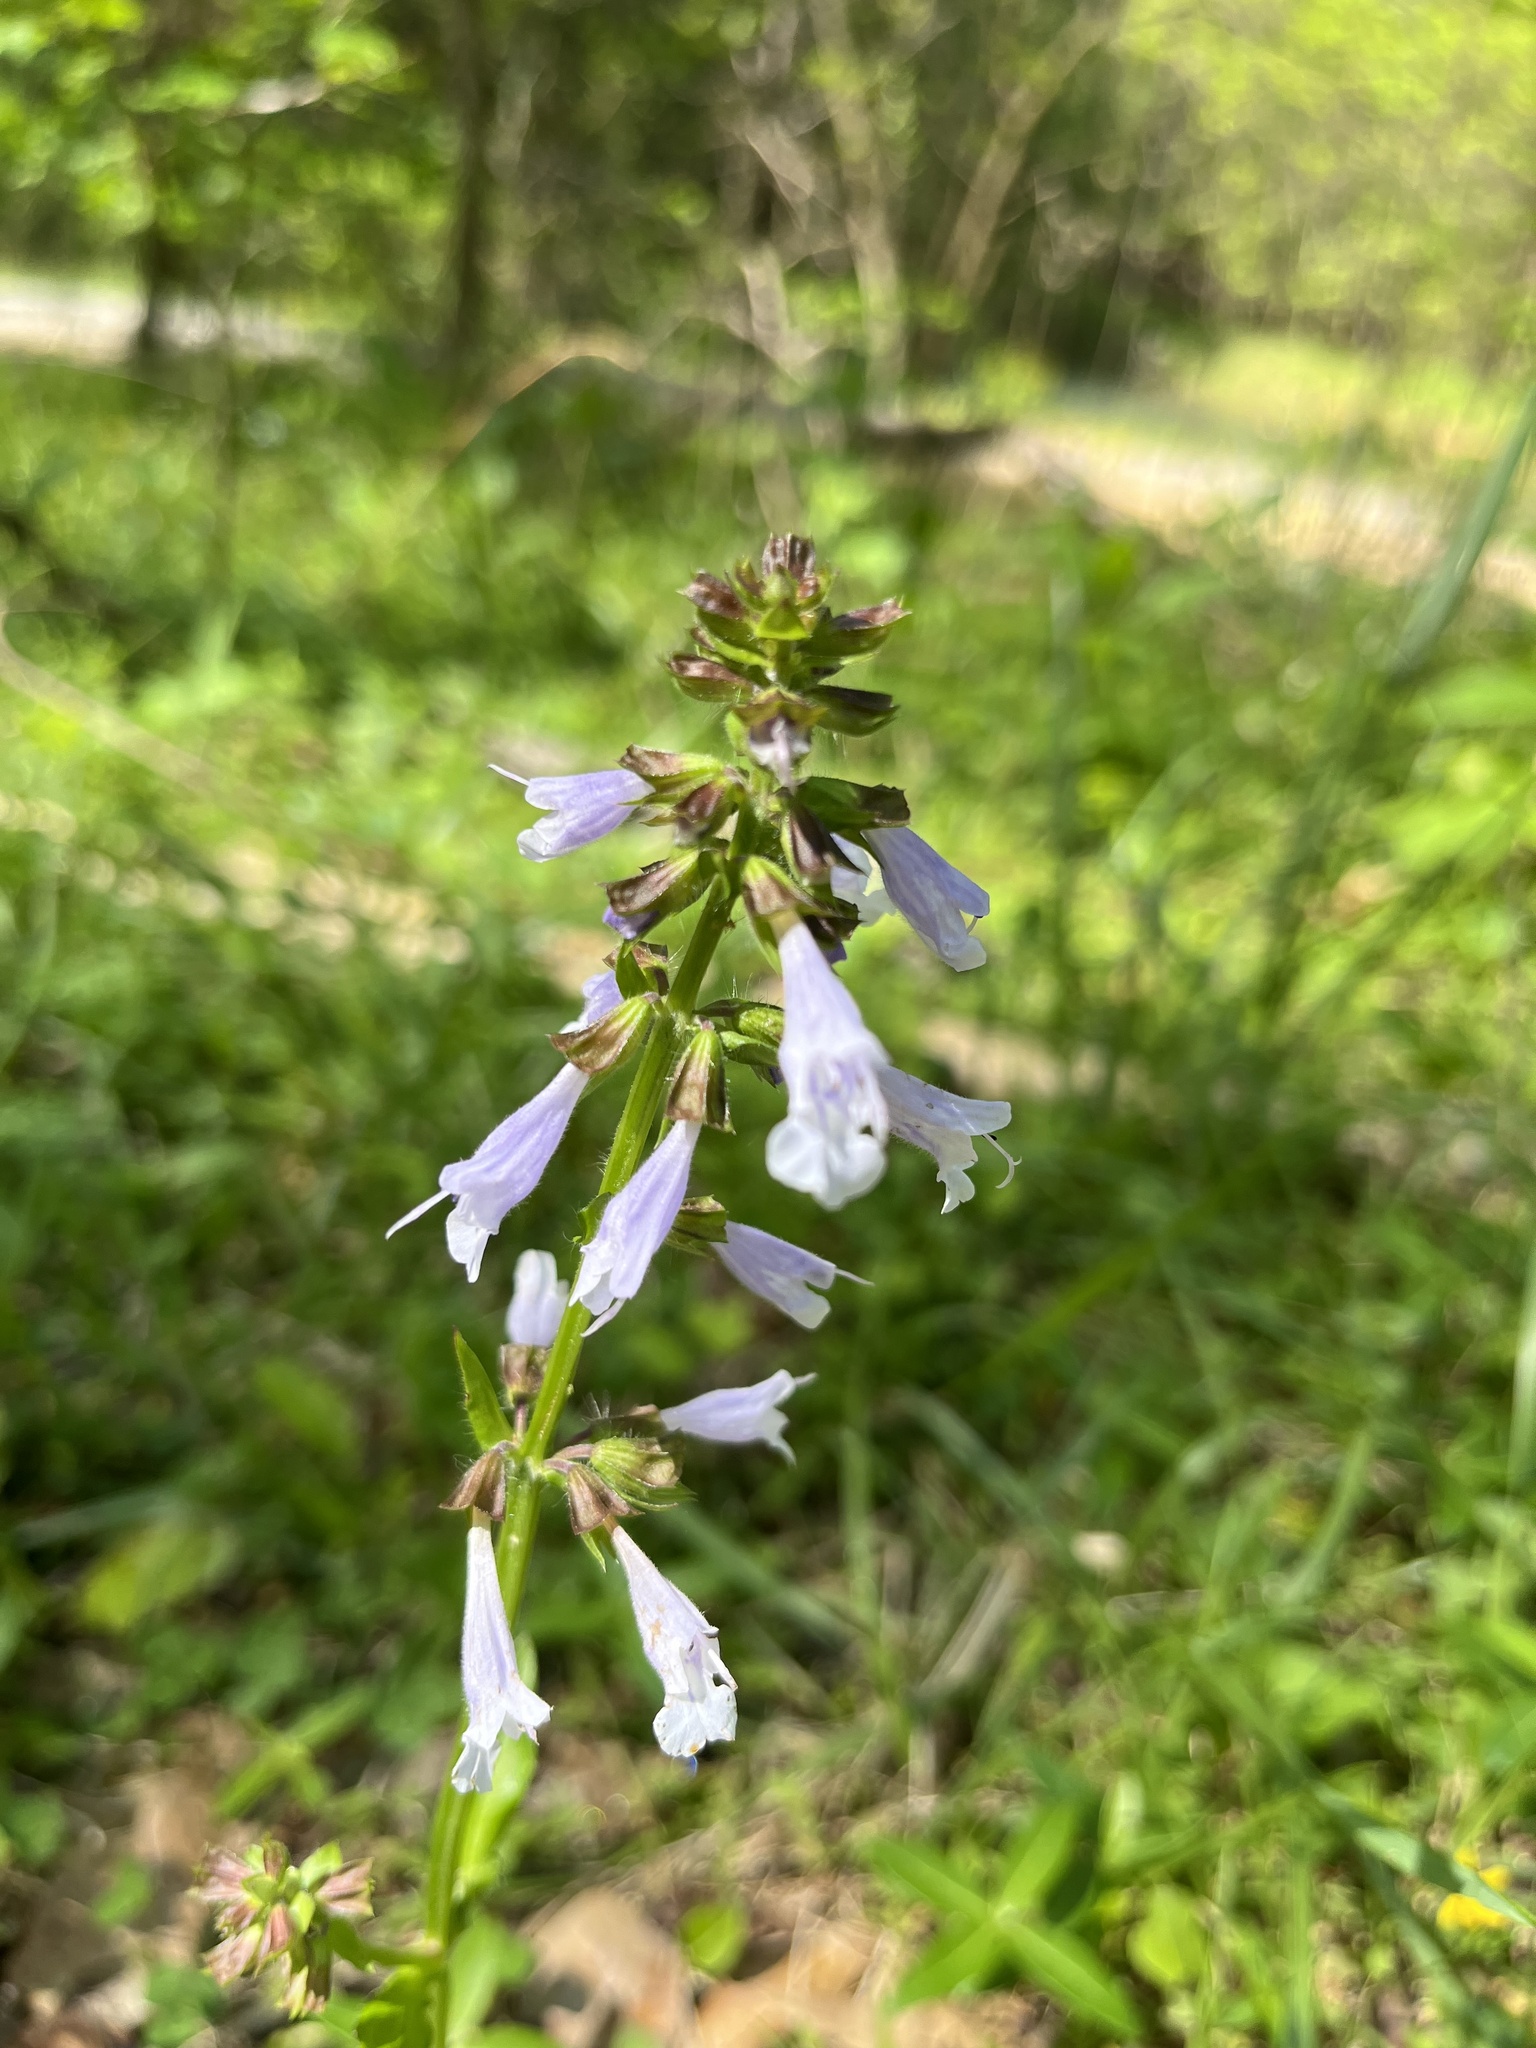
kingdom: Plantae
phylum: Tracheophyta
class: Magnoliopsida
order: Lamiales
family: Lamiaceae
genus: Salvia
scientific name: Salvia lyrata
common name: Cancerweed
